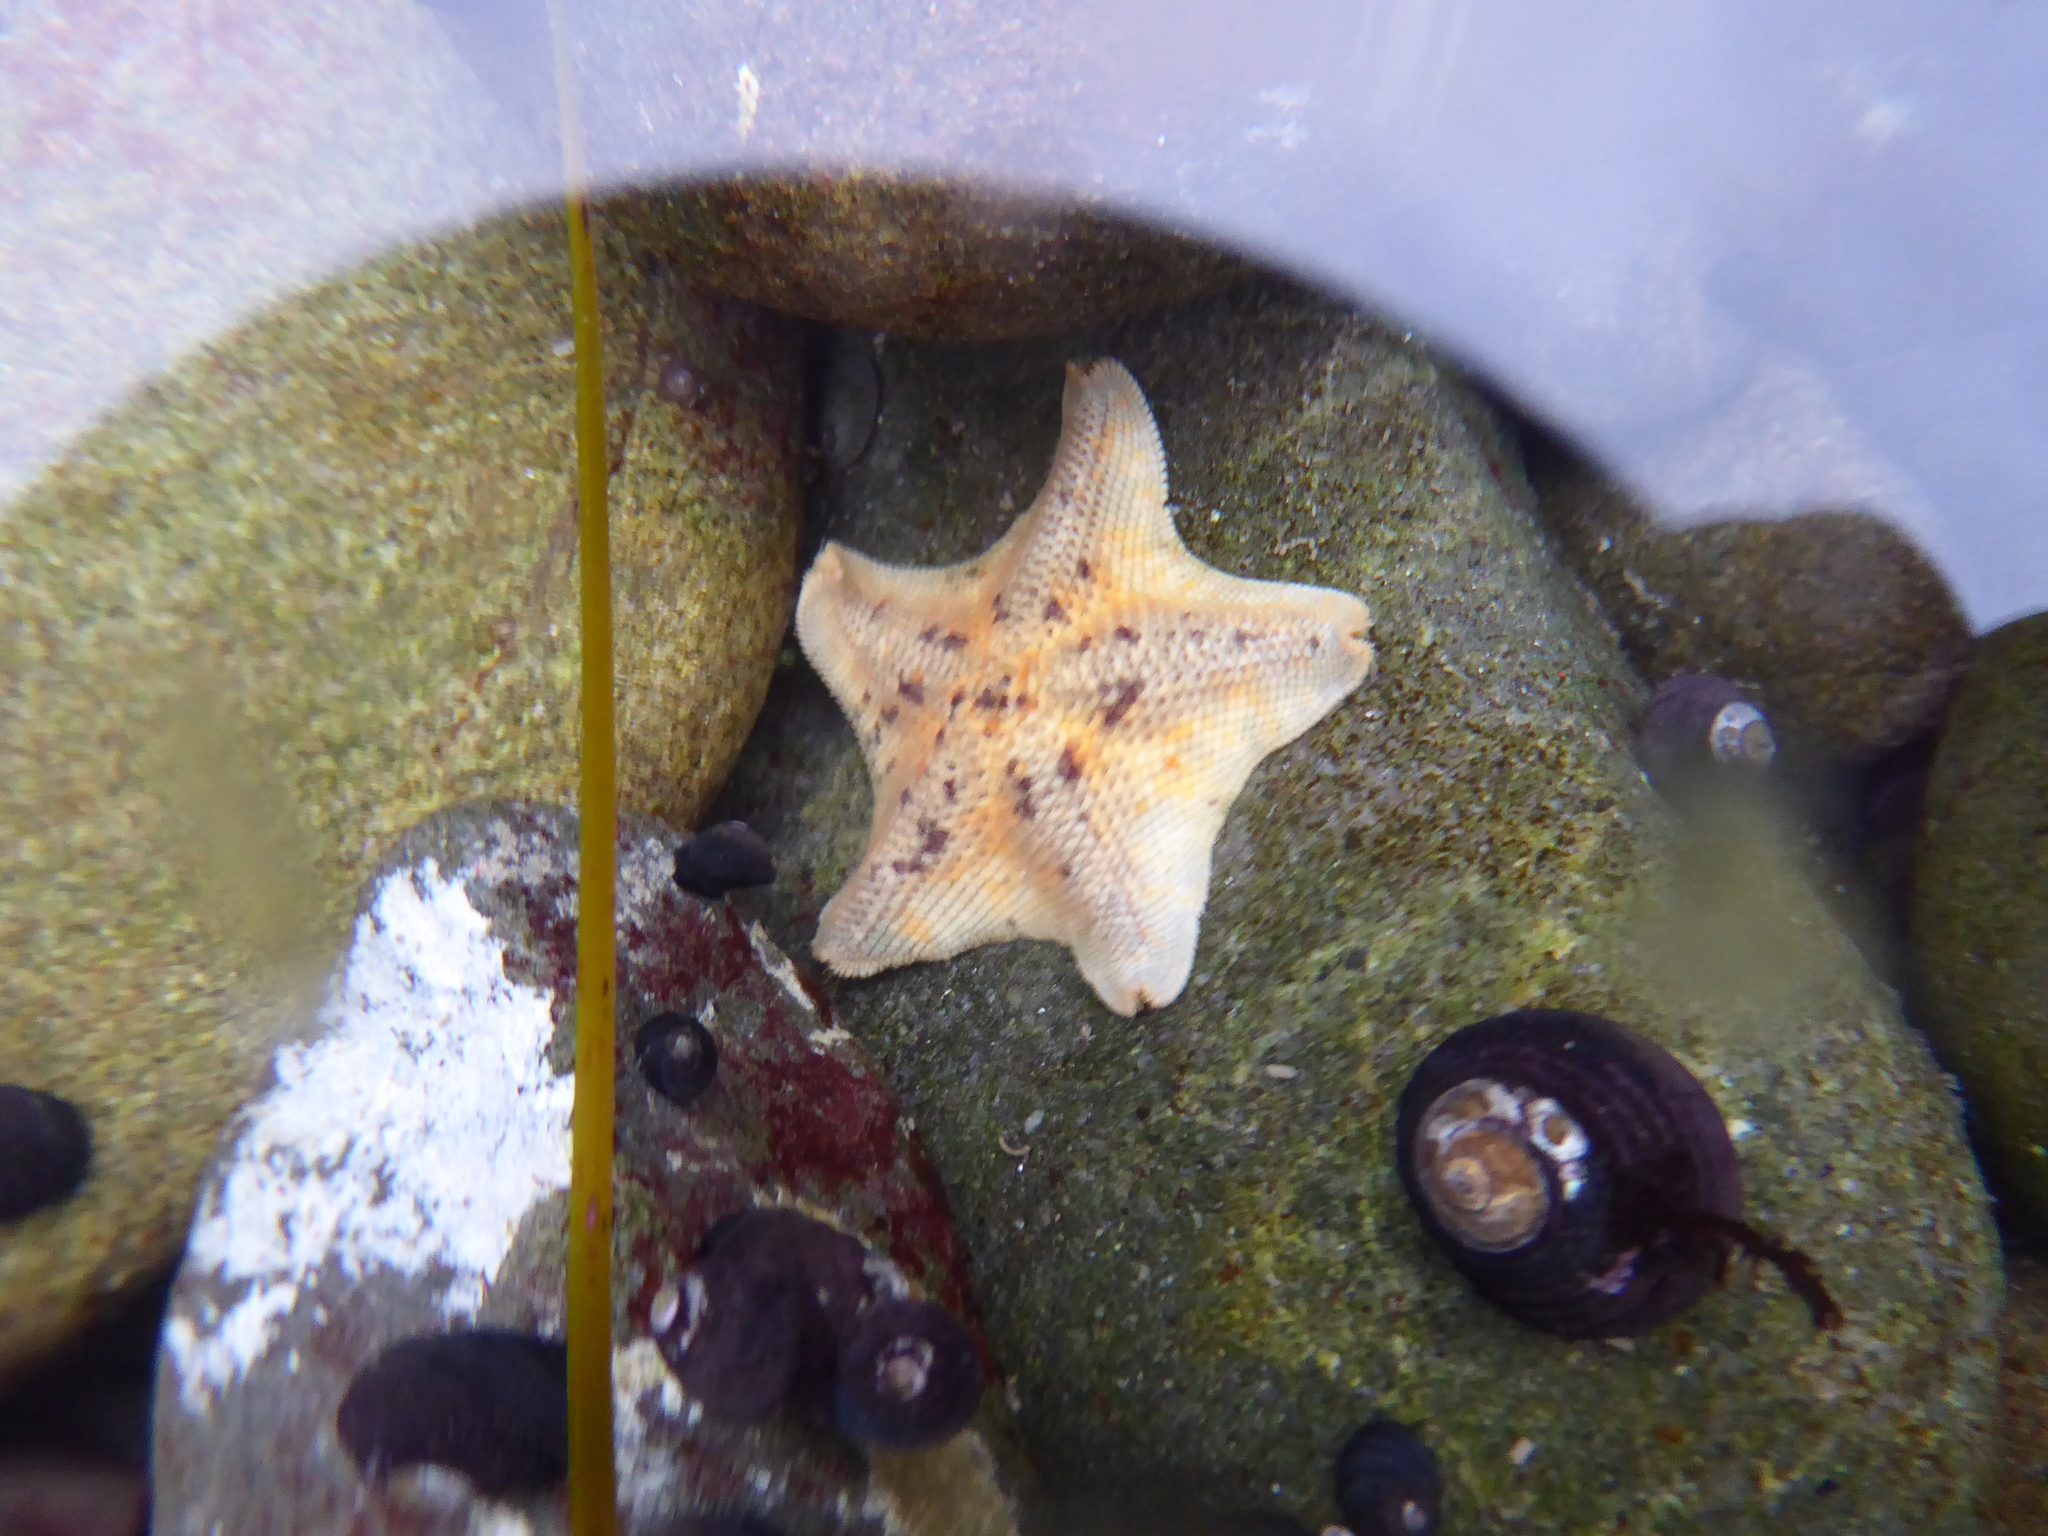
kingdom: Animalia
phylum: Echinodermata
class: Asteroidea
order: Valvatida
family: Asterinidae
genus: Patiria
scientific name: Patiria miniata
